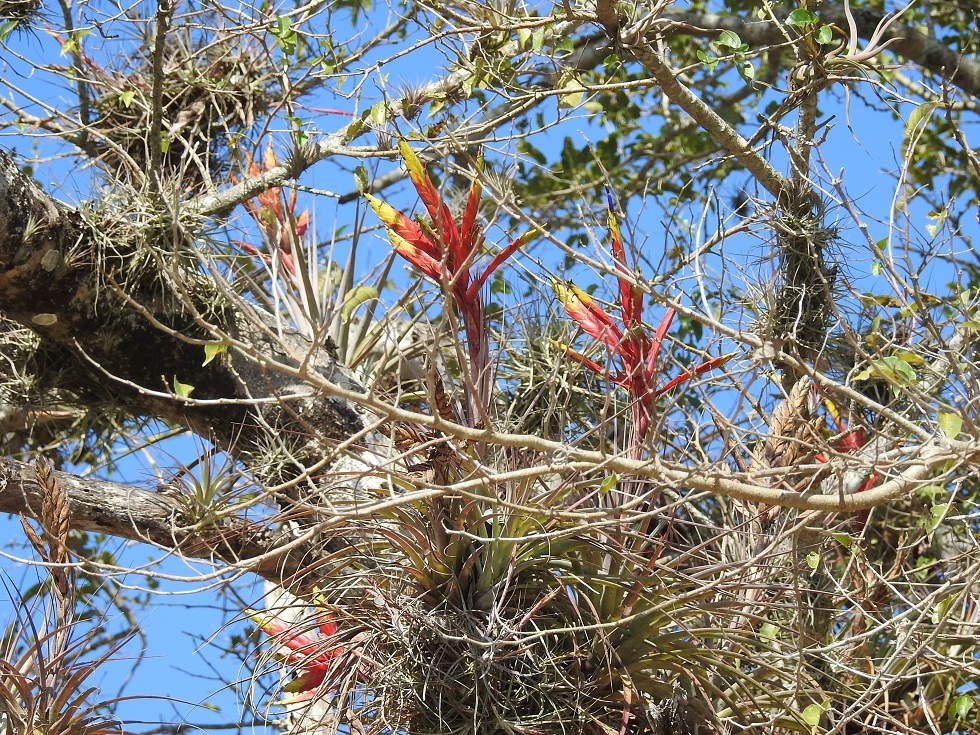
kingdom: Plantae
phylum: Tracheophyta
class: Liliopsida
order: Poales
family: Bromeliaceae
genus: Tillandsia
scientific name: Tillandsia fasciculata
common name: Giant airplant
